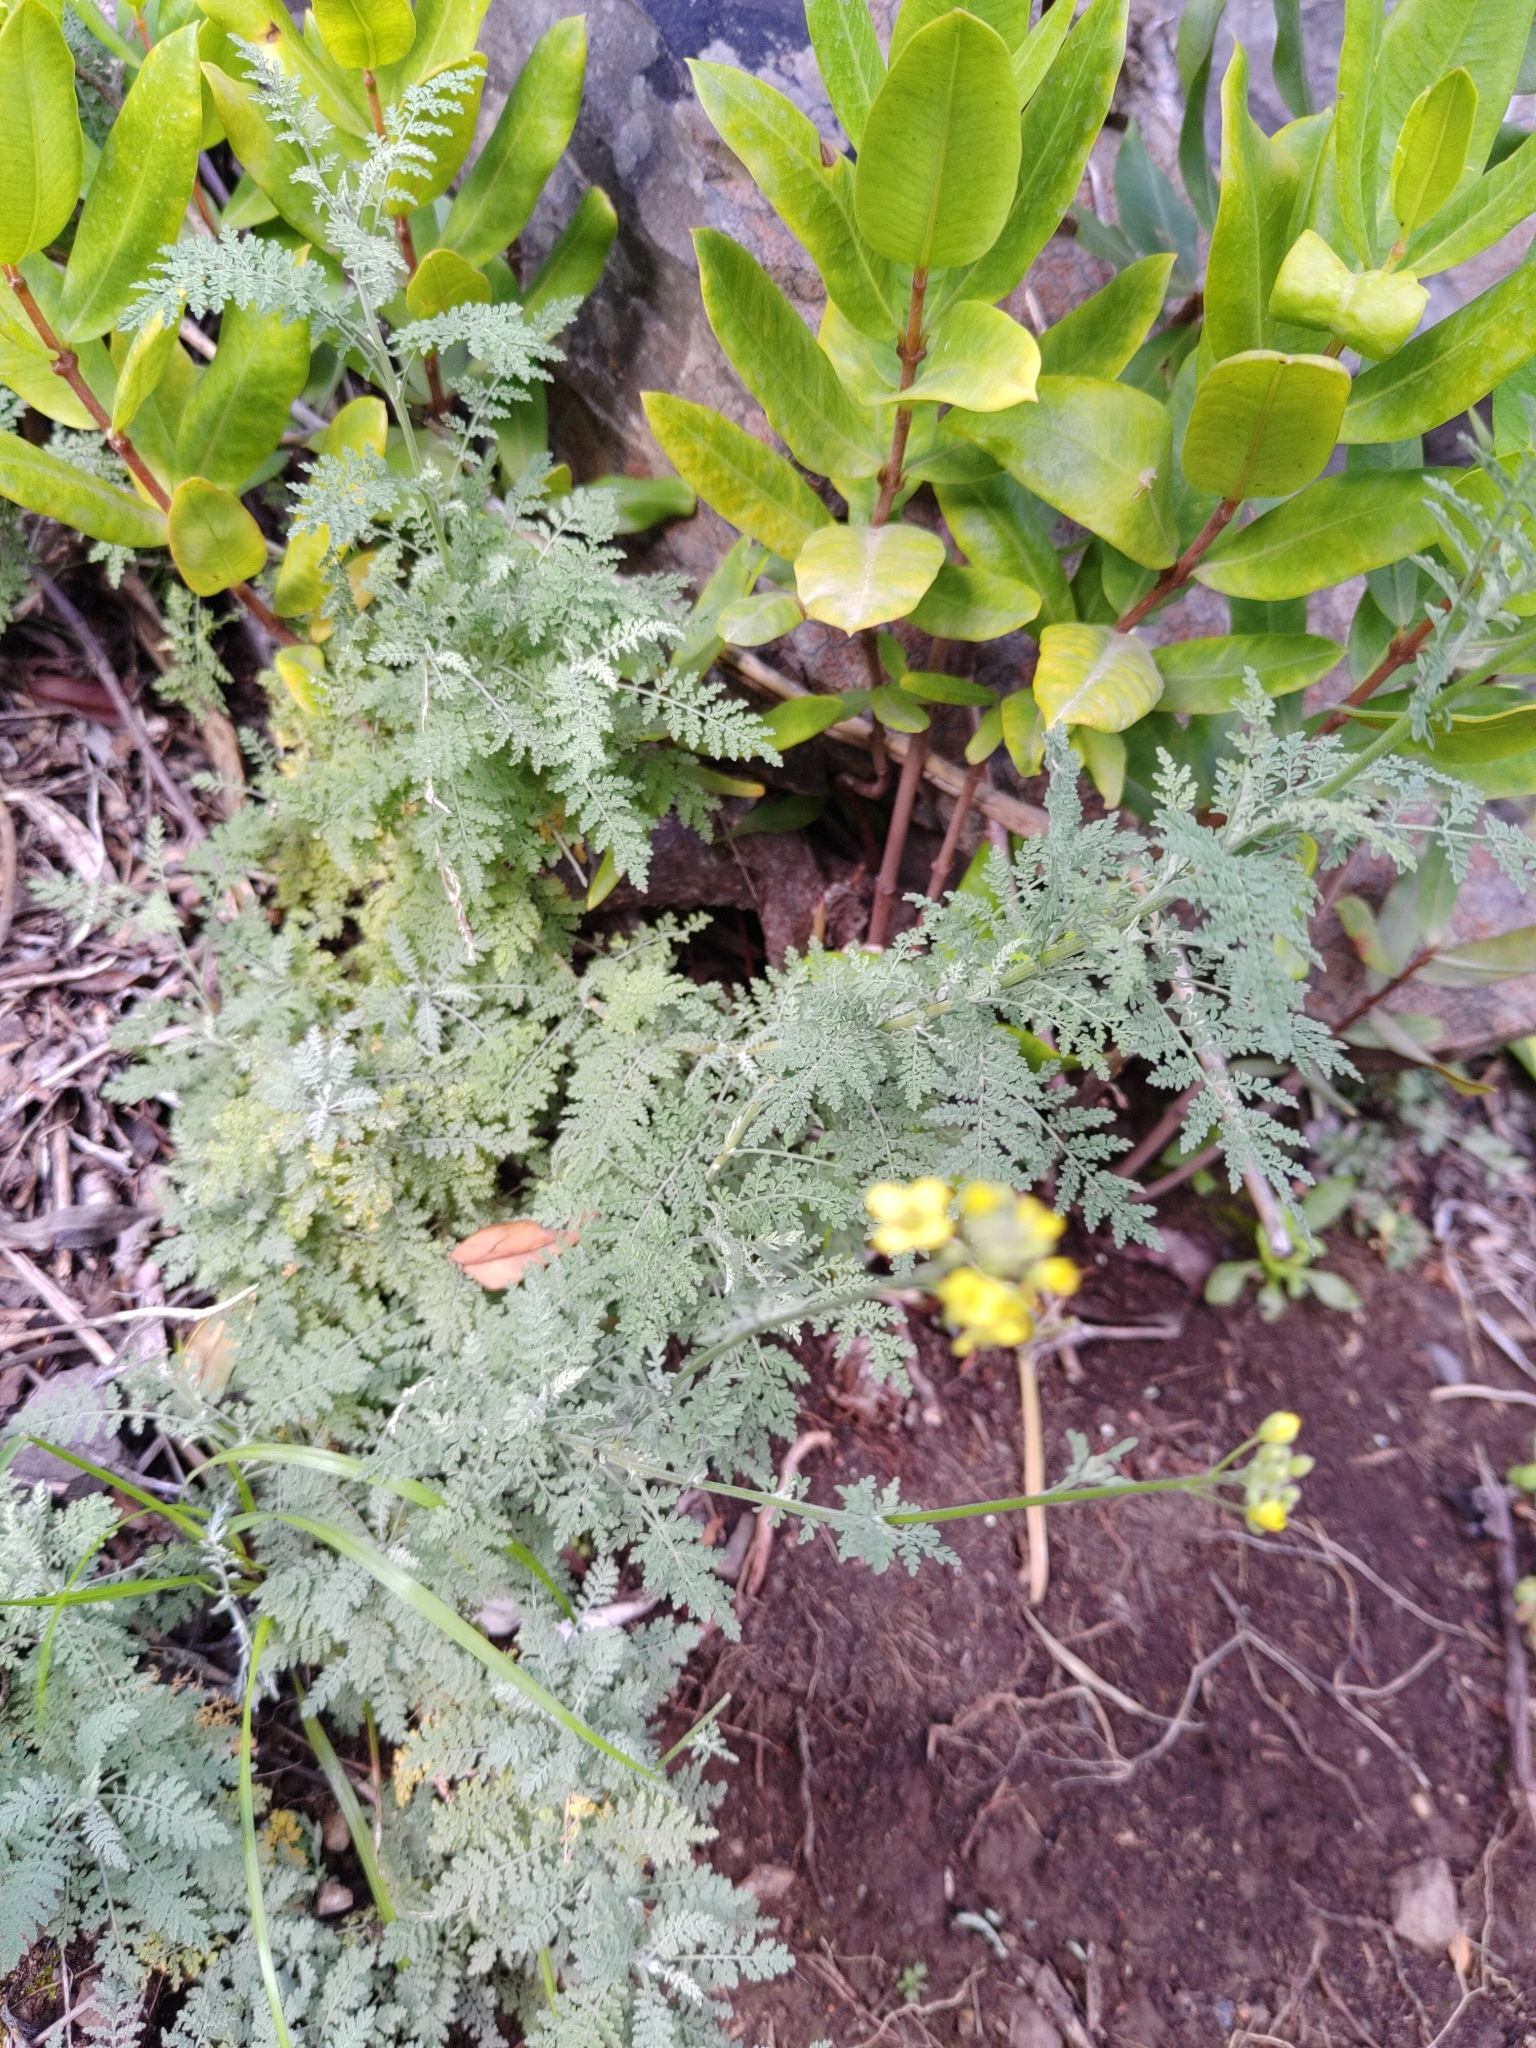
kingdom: Plantae
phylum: Tracheophyta
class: Magnoliopsida
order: Brassicales
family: Brassicaceae
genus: Descurainia
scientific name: Descurainia millefolia
